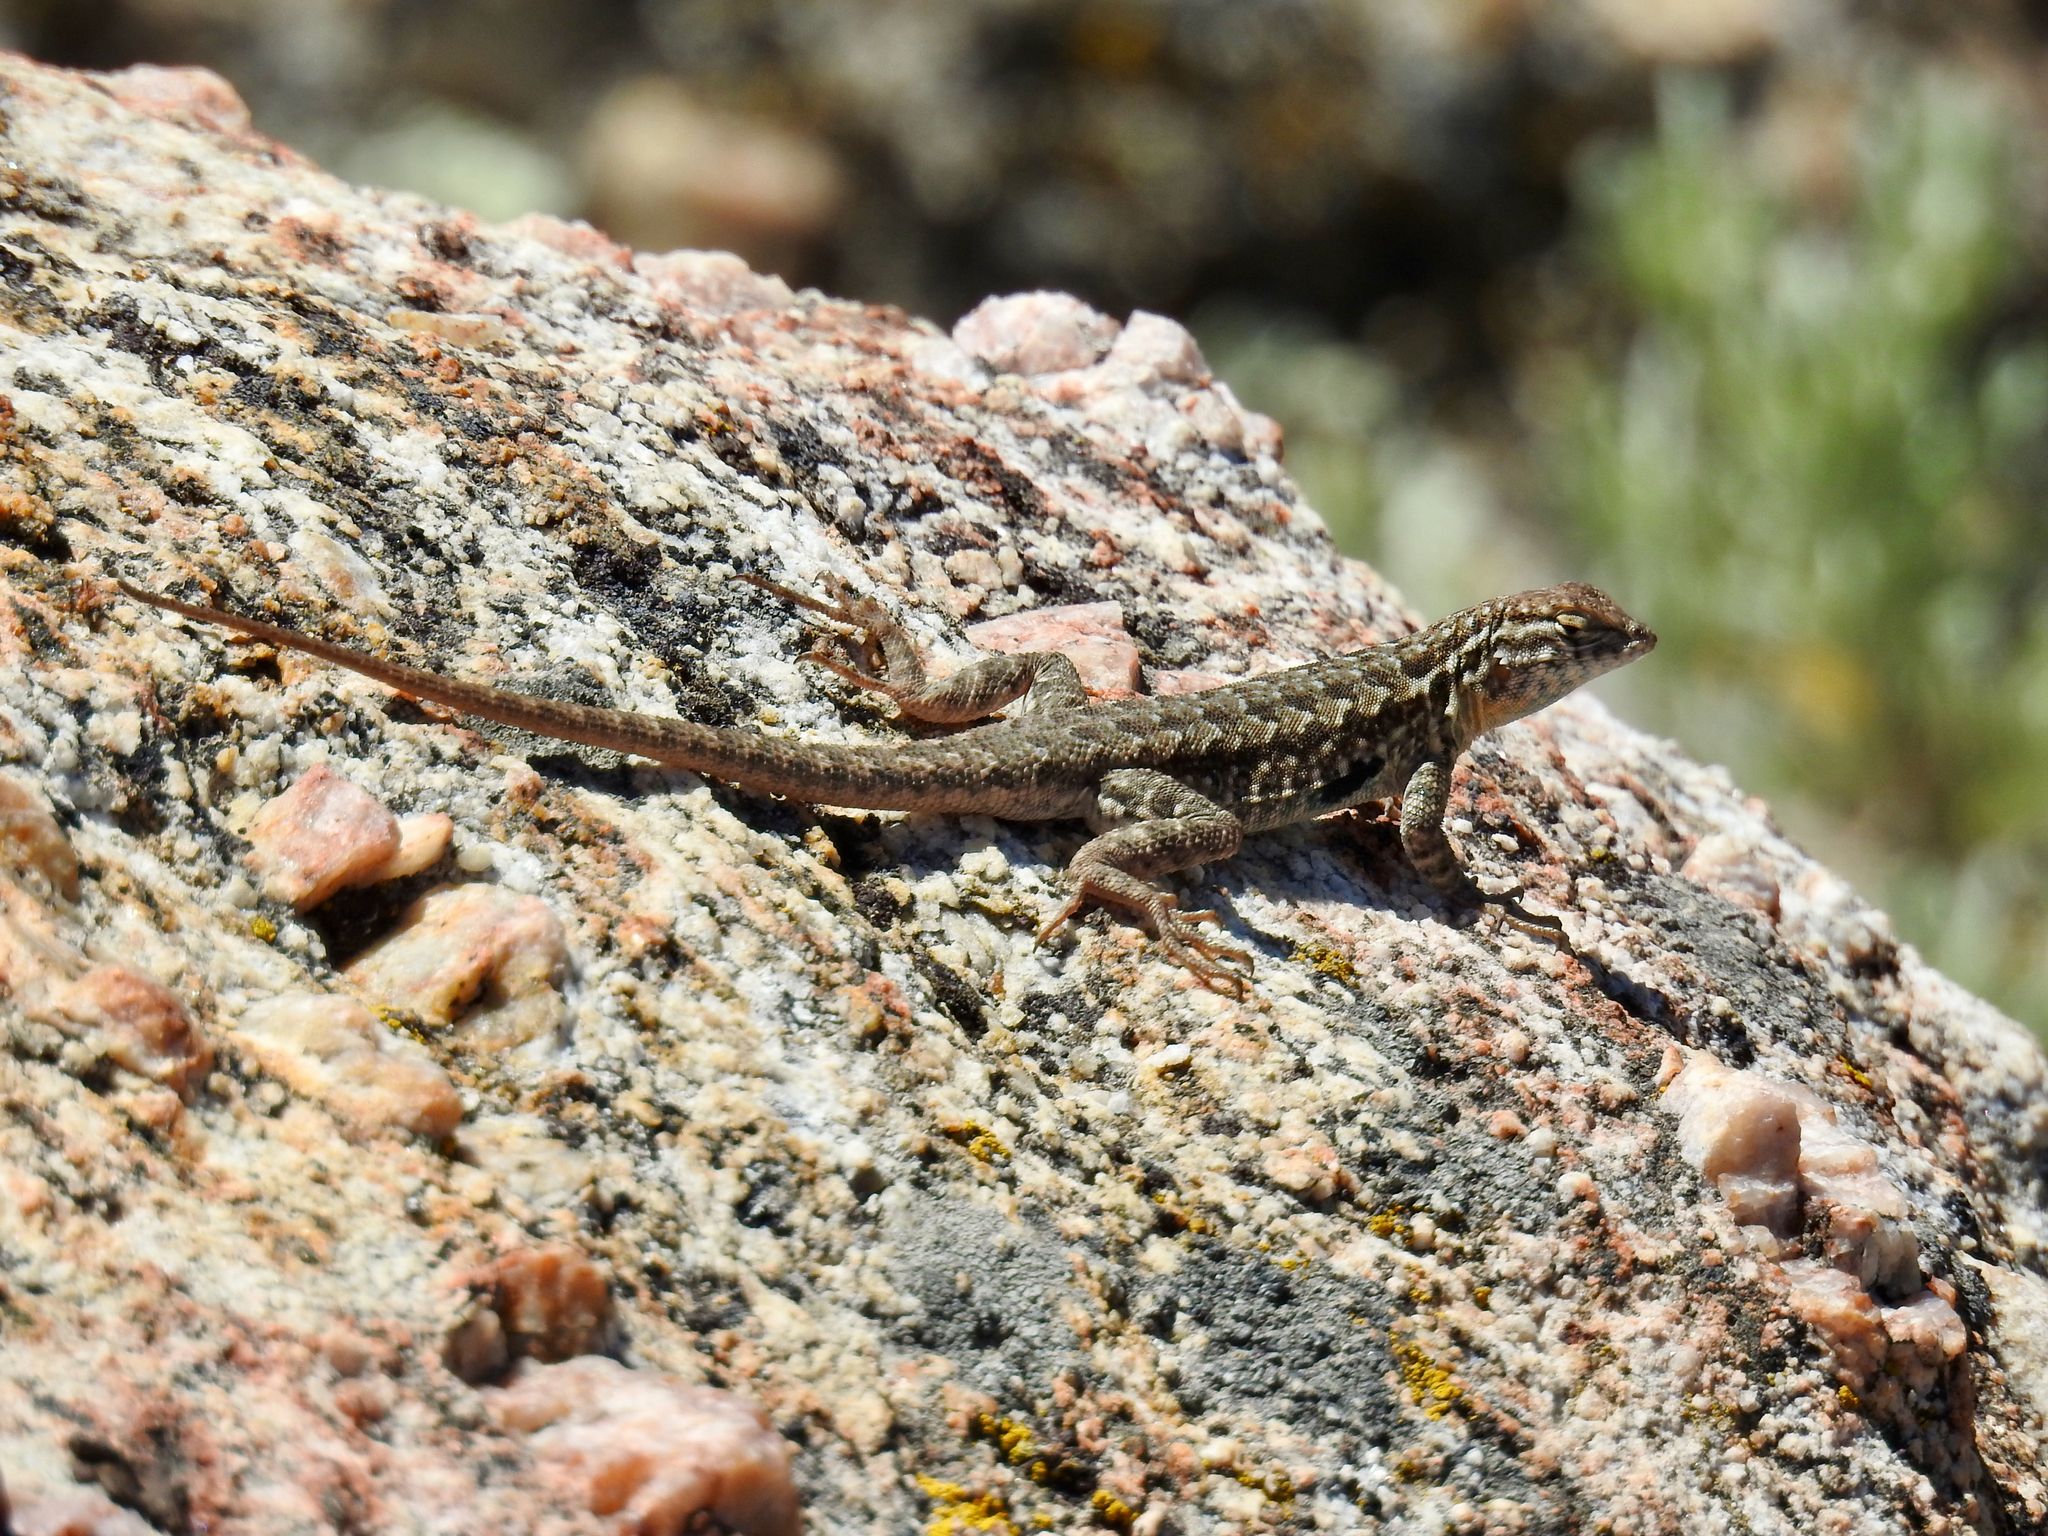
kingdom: Animalia
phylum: Chordata
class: Squamata
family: Phrynosomatidae
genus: Uta
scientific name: Uta stansburiana
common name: Side-blotched lizard
